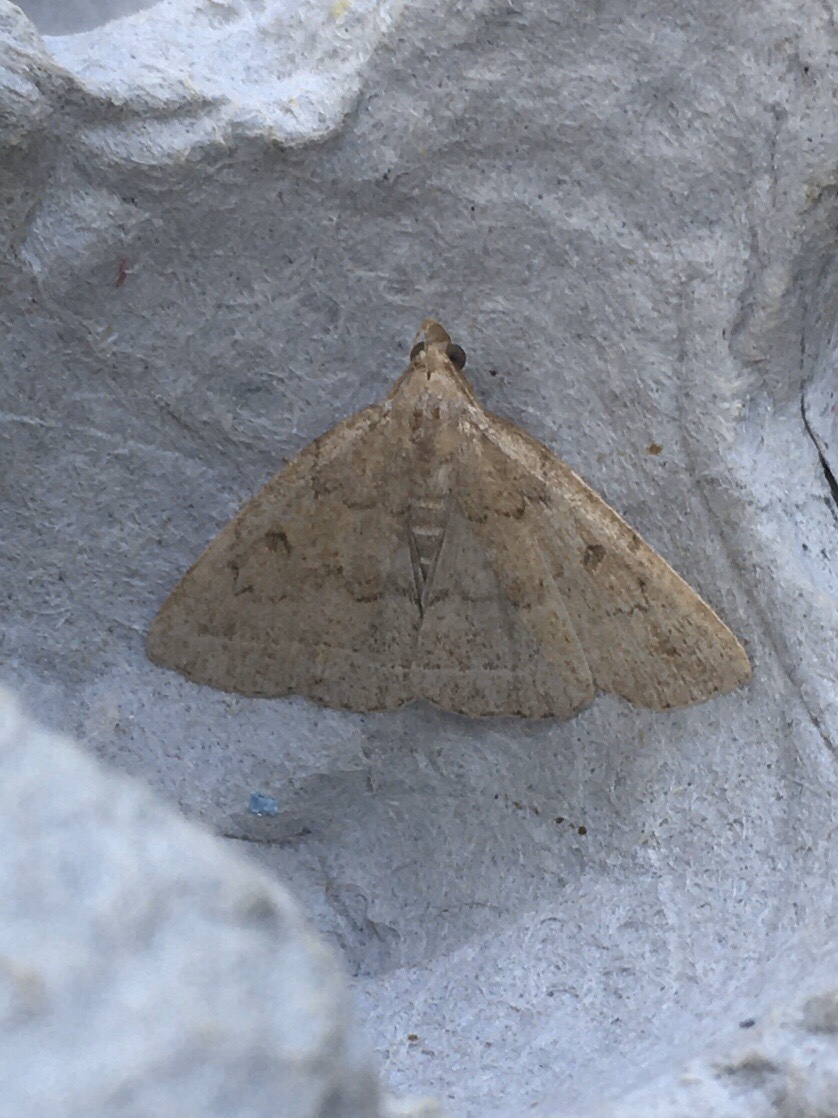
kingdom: Animalia
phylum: Arthropoda
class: Insecta
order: Lepidoptera
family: Erebidae
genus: Zanclognatha
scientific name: Zanclognatha jacchusalis
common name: Yellowish zanclognatha
